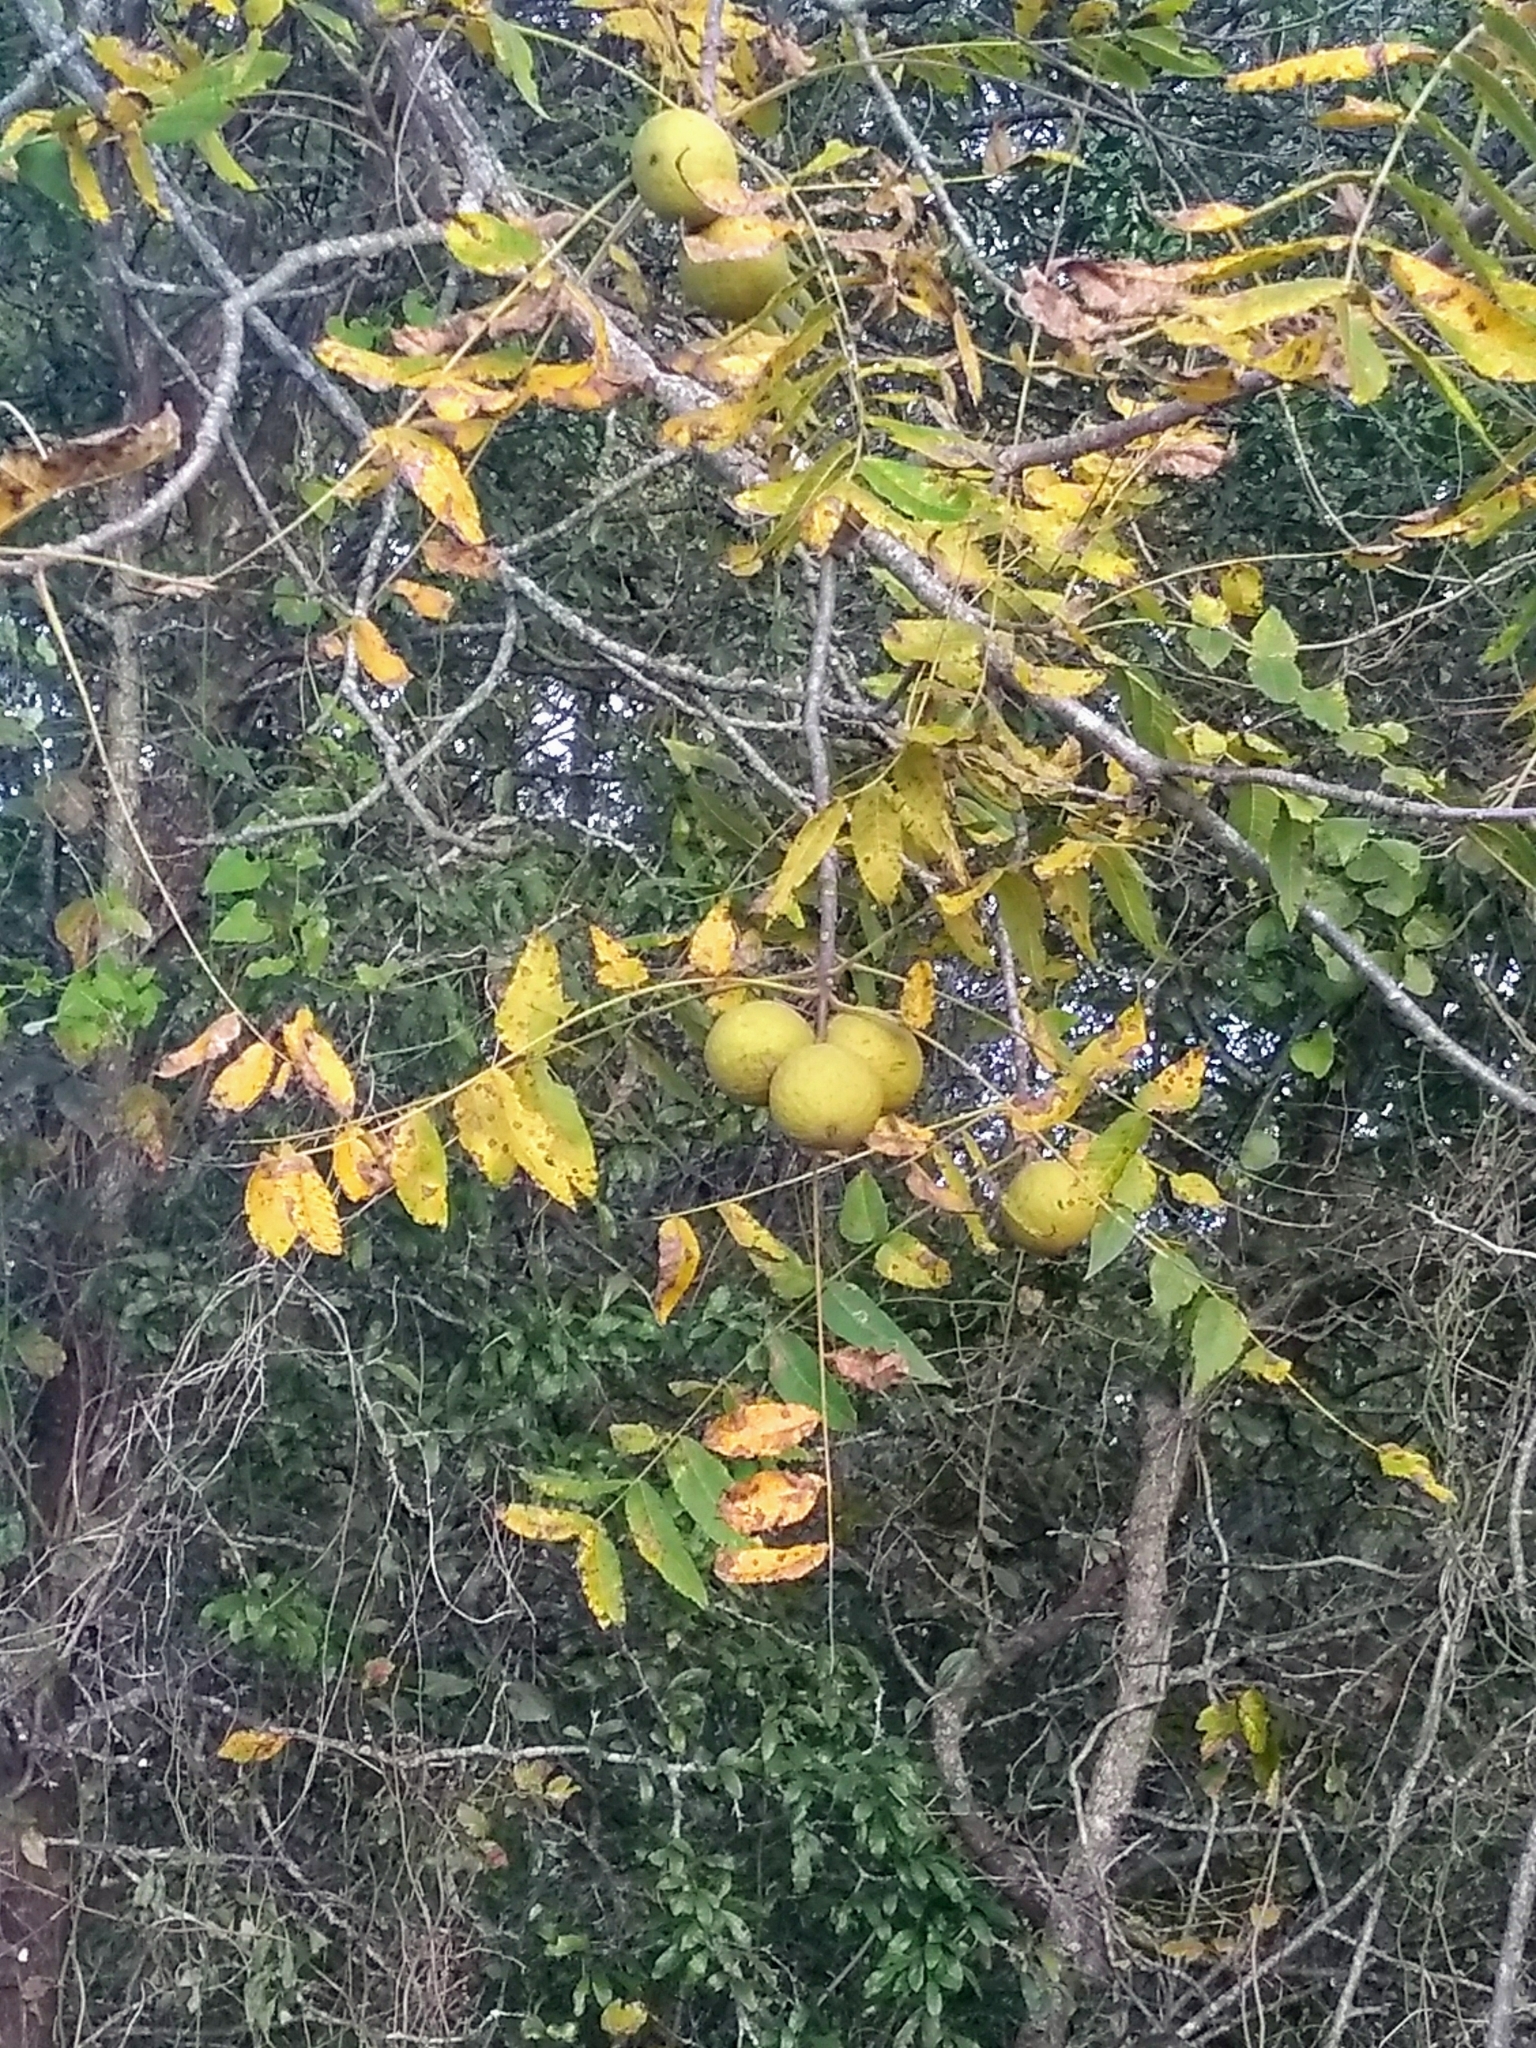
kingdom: Plantae
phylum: Tracheophyta
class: Magnoliopsida
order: Fagales
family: Juglandaceae
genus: Juglans
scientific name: Juglans nigra
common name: Black walnut
